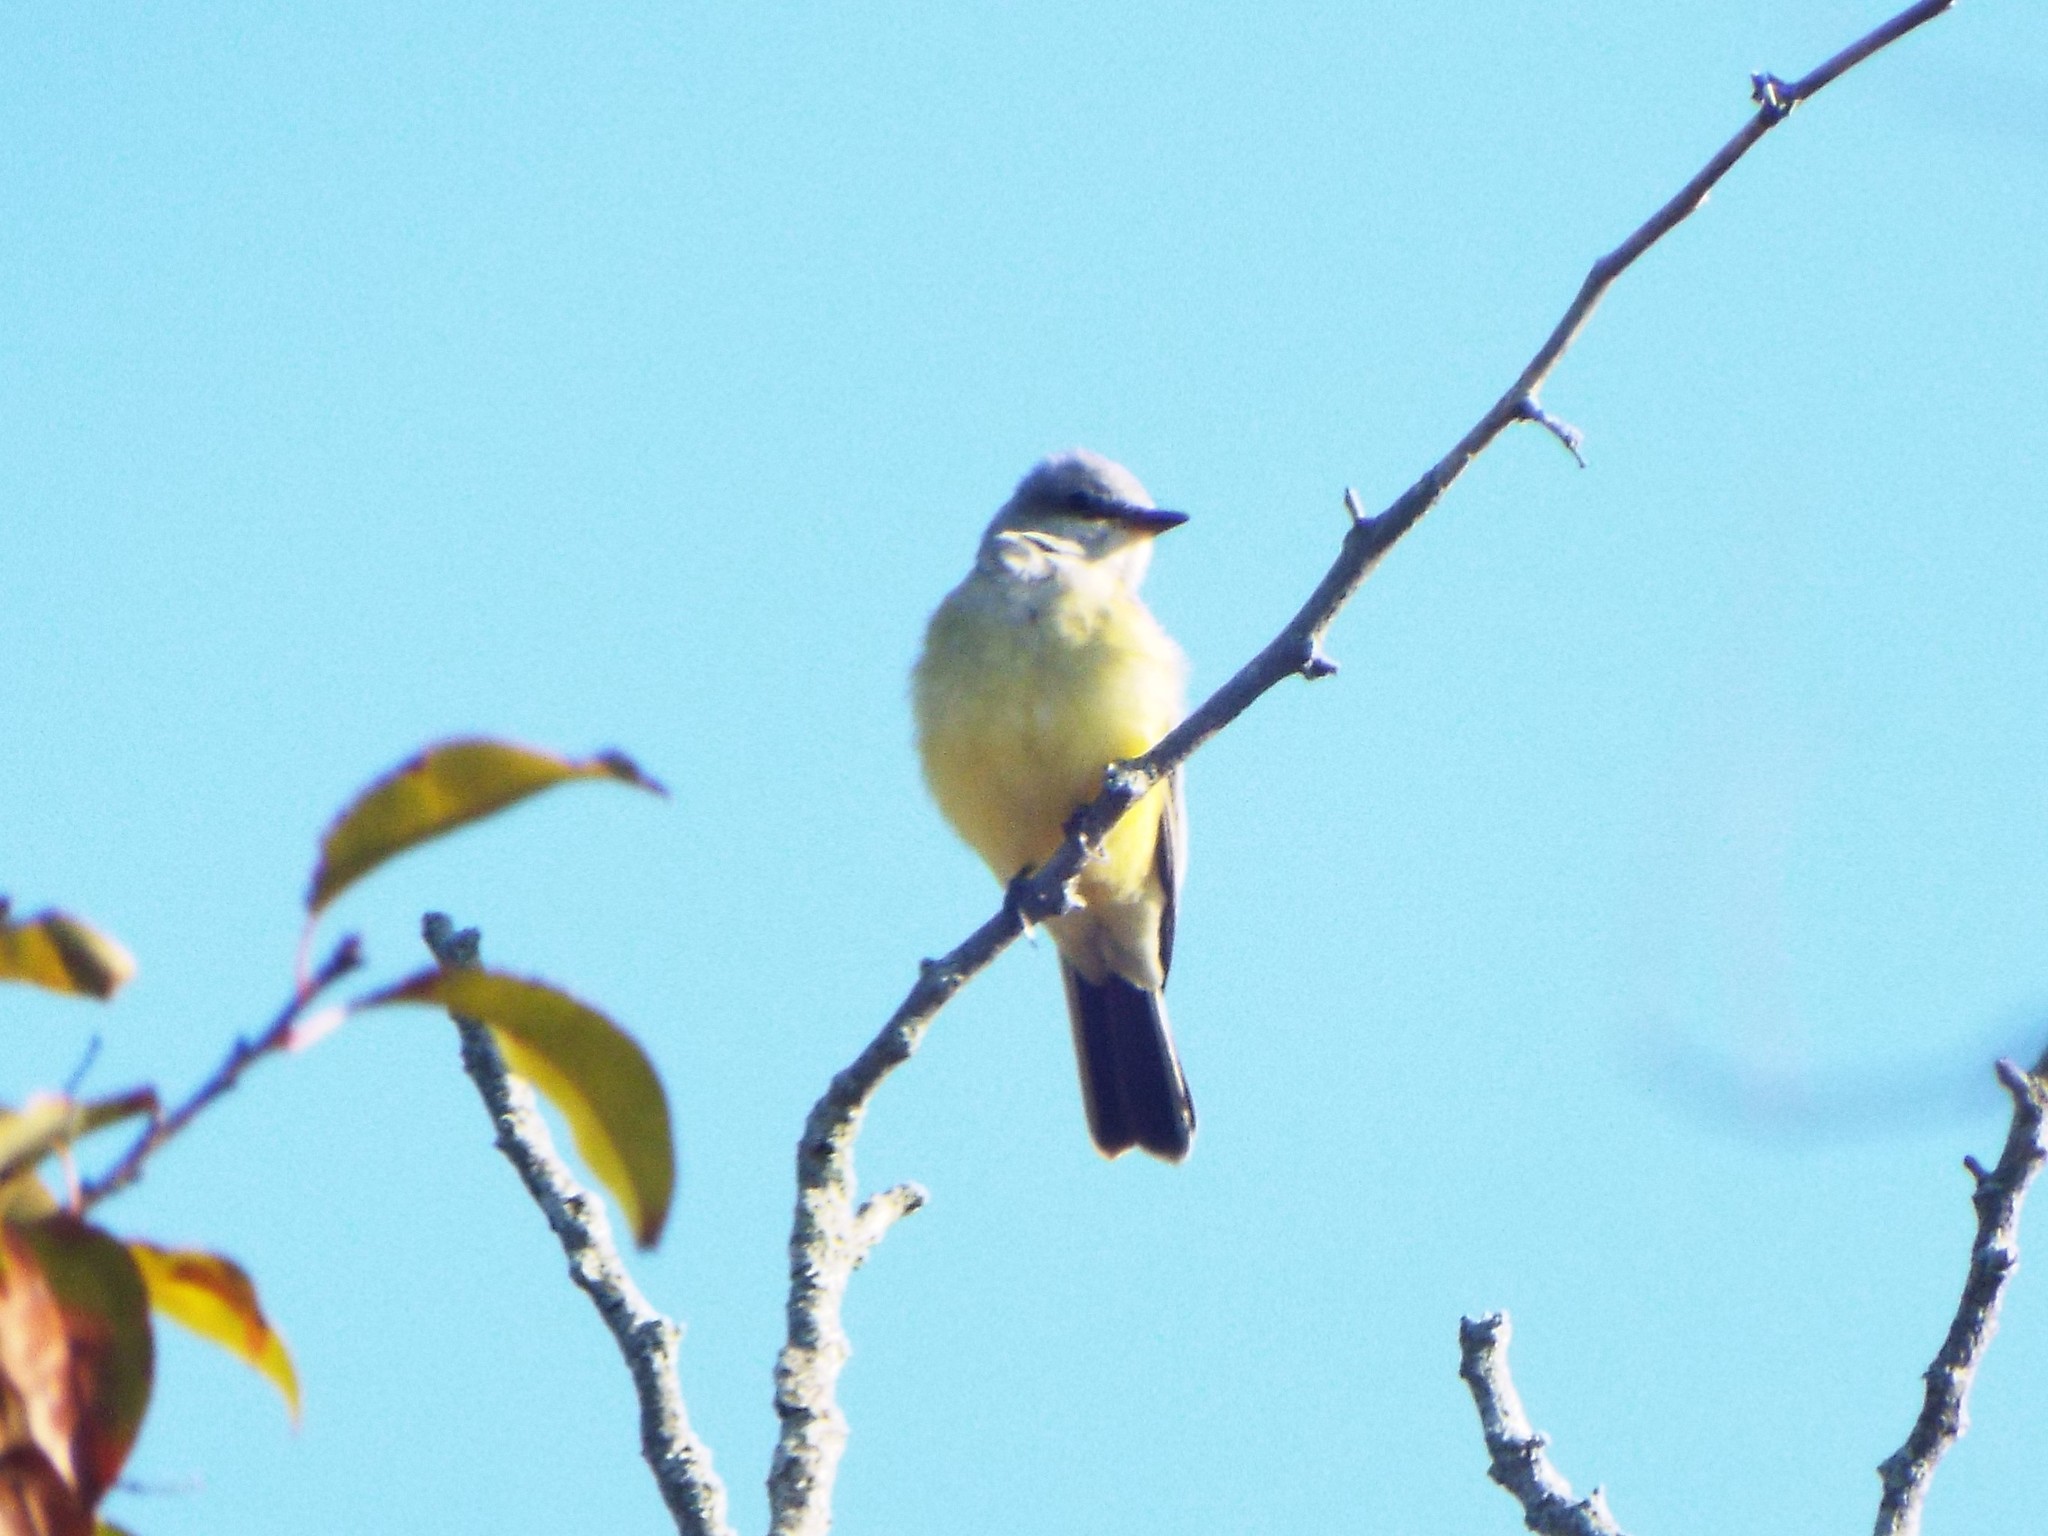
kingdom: Animalia
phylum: Chordata
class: Aves
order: Passeriformes
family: Tyrannidae
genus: Tyrannus
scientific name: Tyrannus verticalis
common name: Western kingbird
